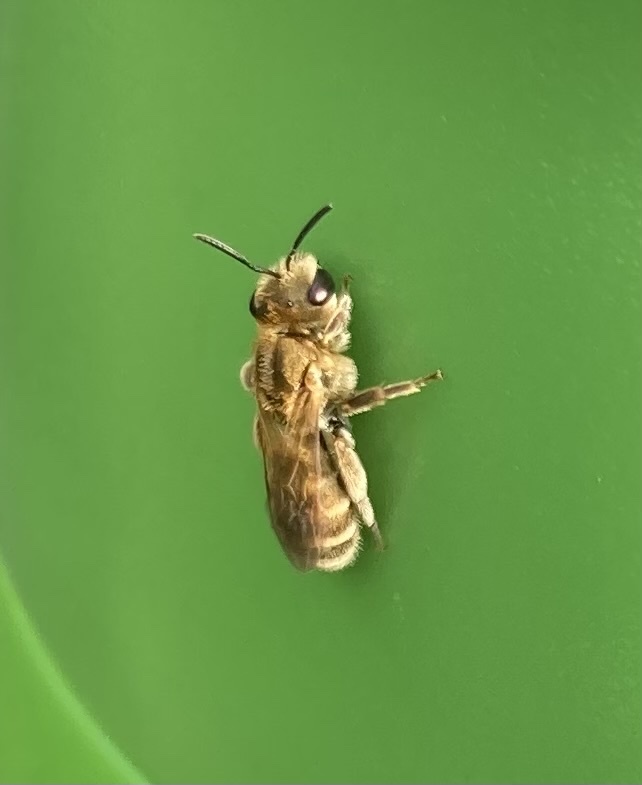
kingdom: Animalia
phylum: Arthropoda
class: Insecta
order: Hymenoptera
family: Halictidae
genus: Halictus
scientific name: Halictus subauratus
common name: Golden furrow bee
